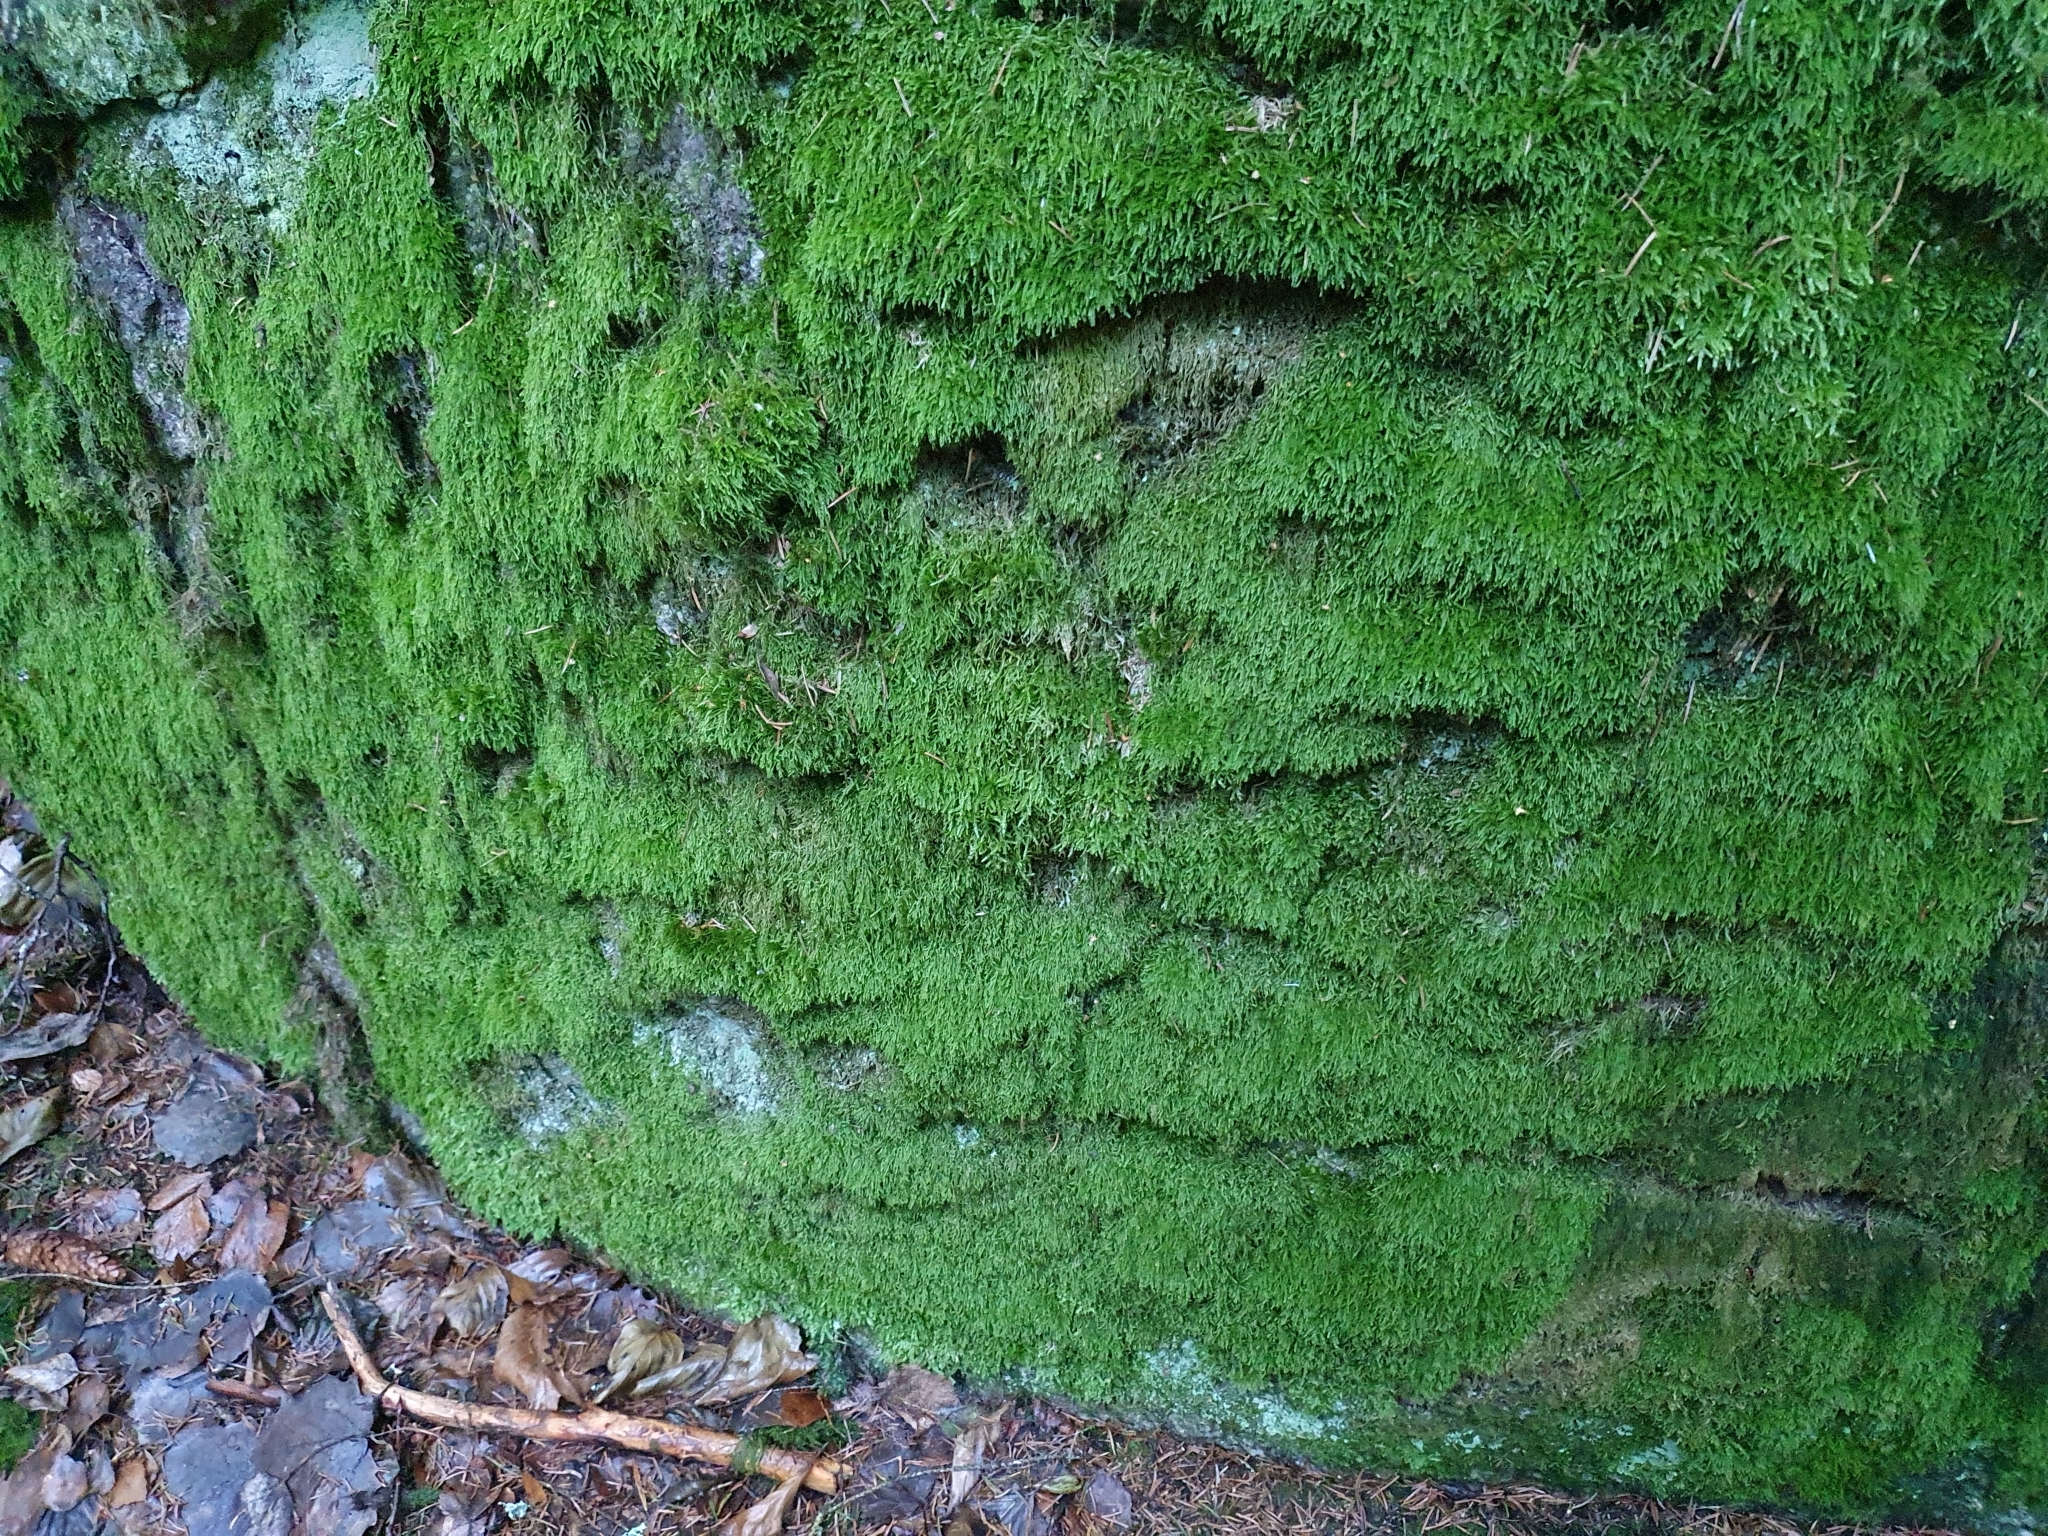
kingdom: Plantae
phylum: Bryophyta
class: Bryopsida
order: Hypnales
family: Hypnaceae
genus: Hypnum
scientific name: Hypnum cupressiforme
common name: Cypress-leaved plait-moss
